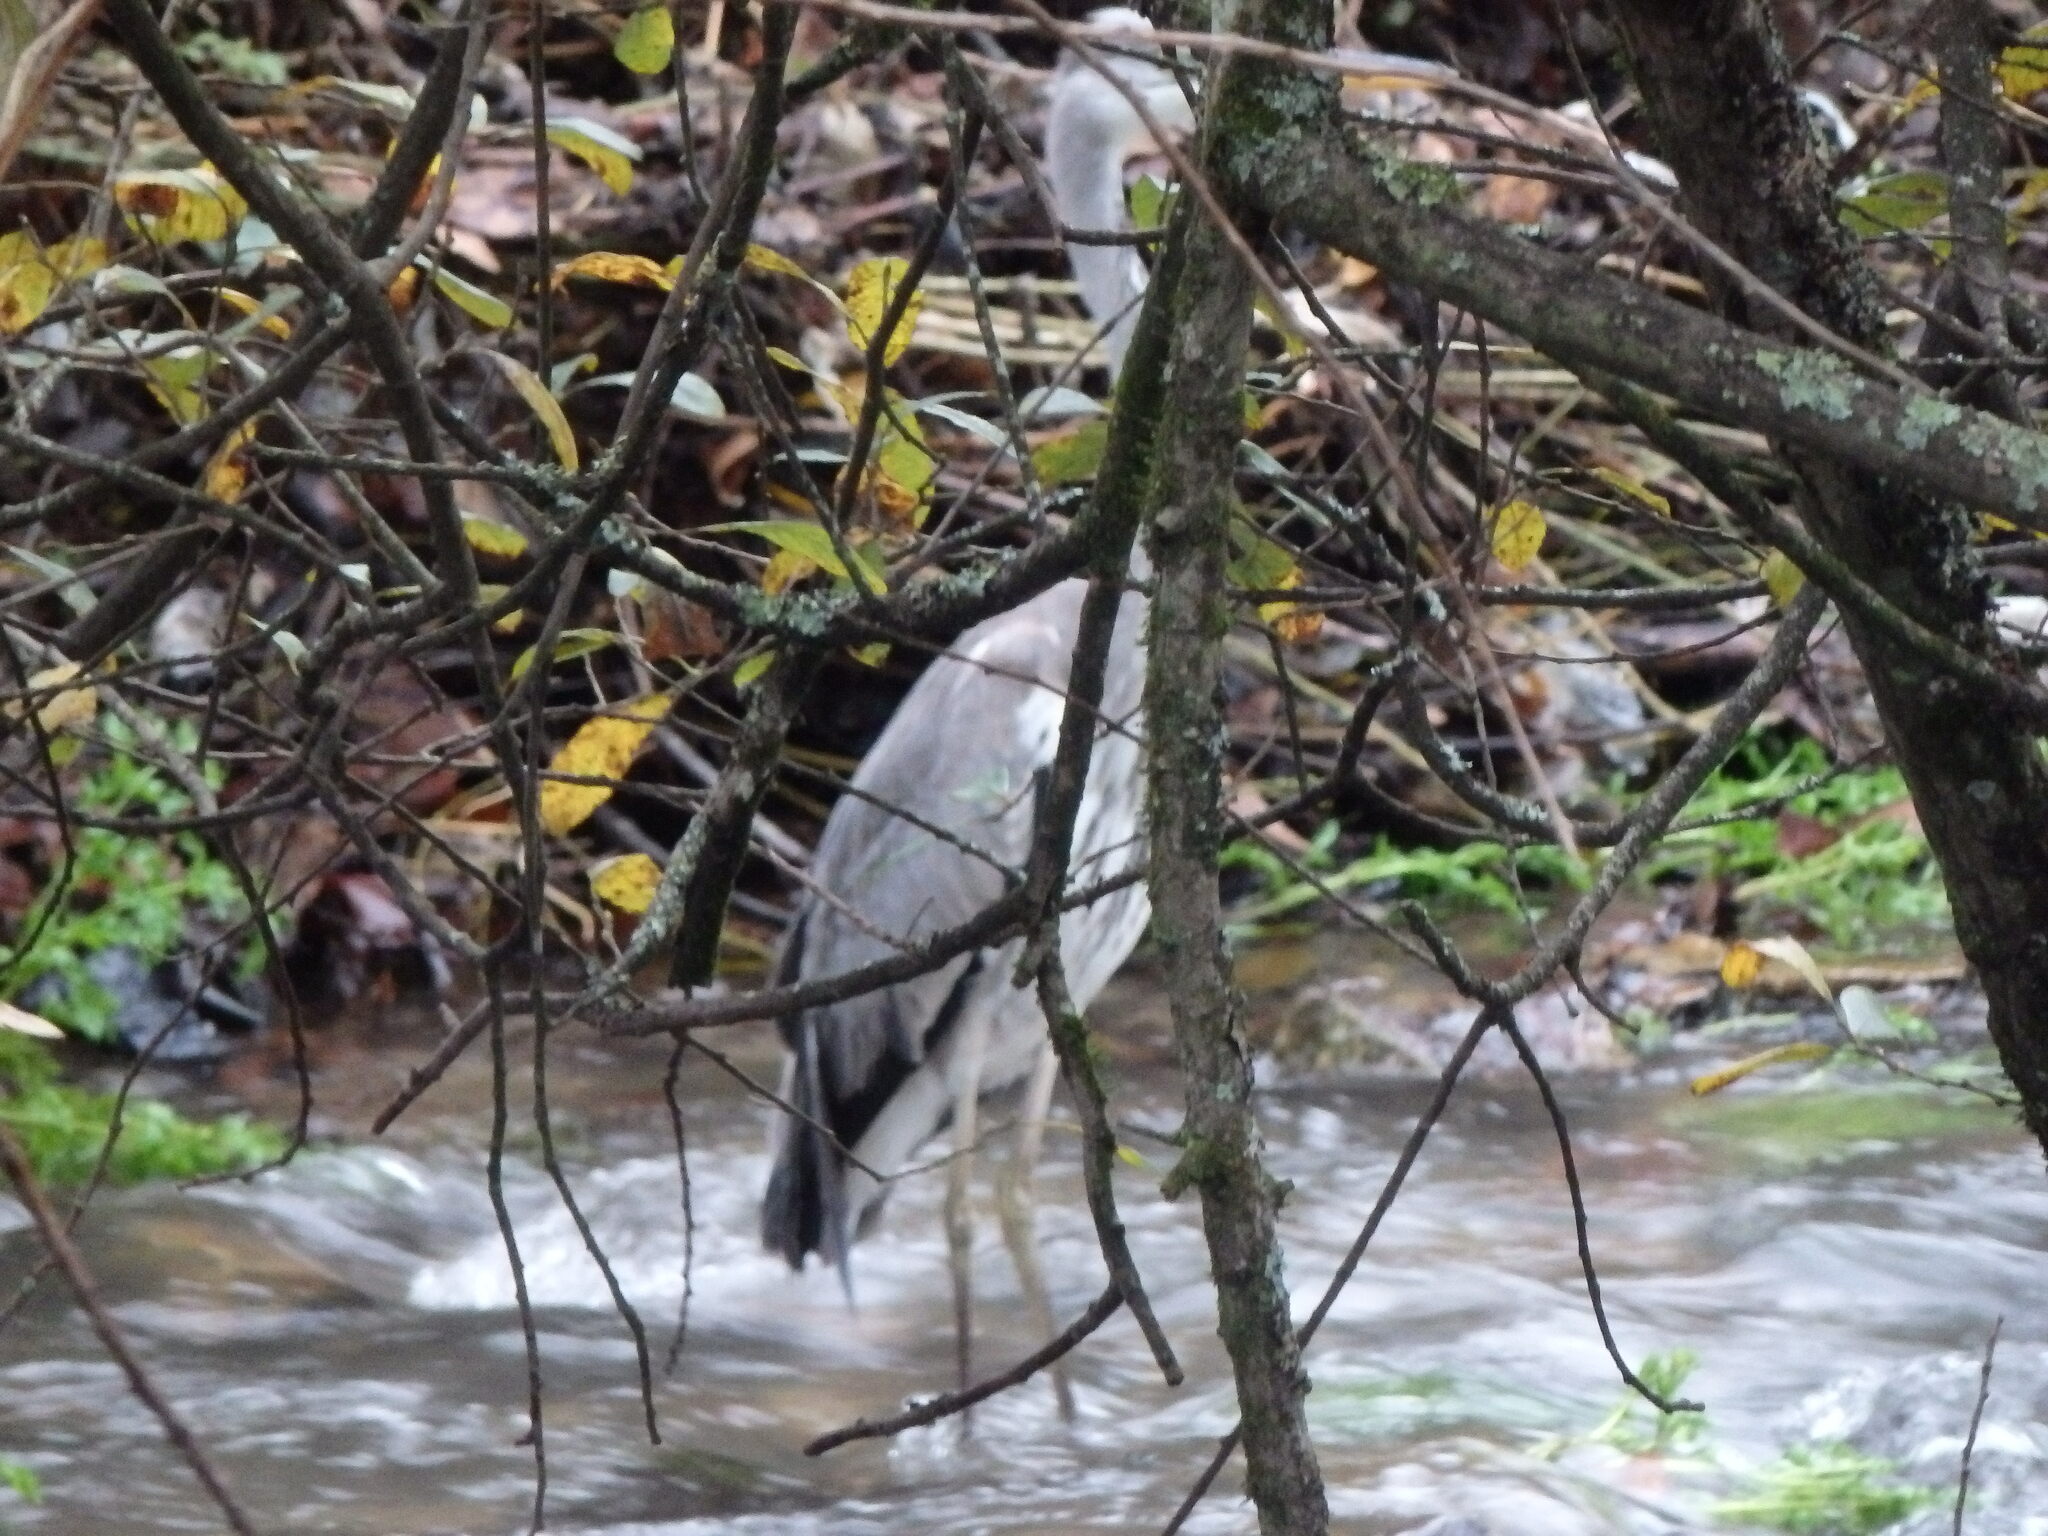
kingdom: Animalia
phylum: Chordata
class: Aves
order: Pelecaniformes
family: Ardeidae
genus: Ardea
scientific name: Ardea cinerea
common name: Grey heron
